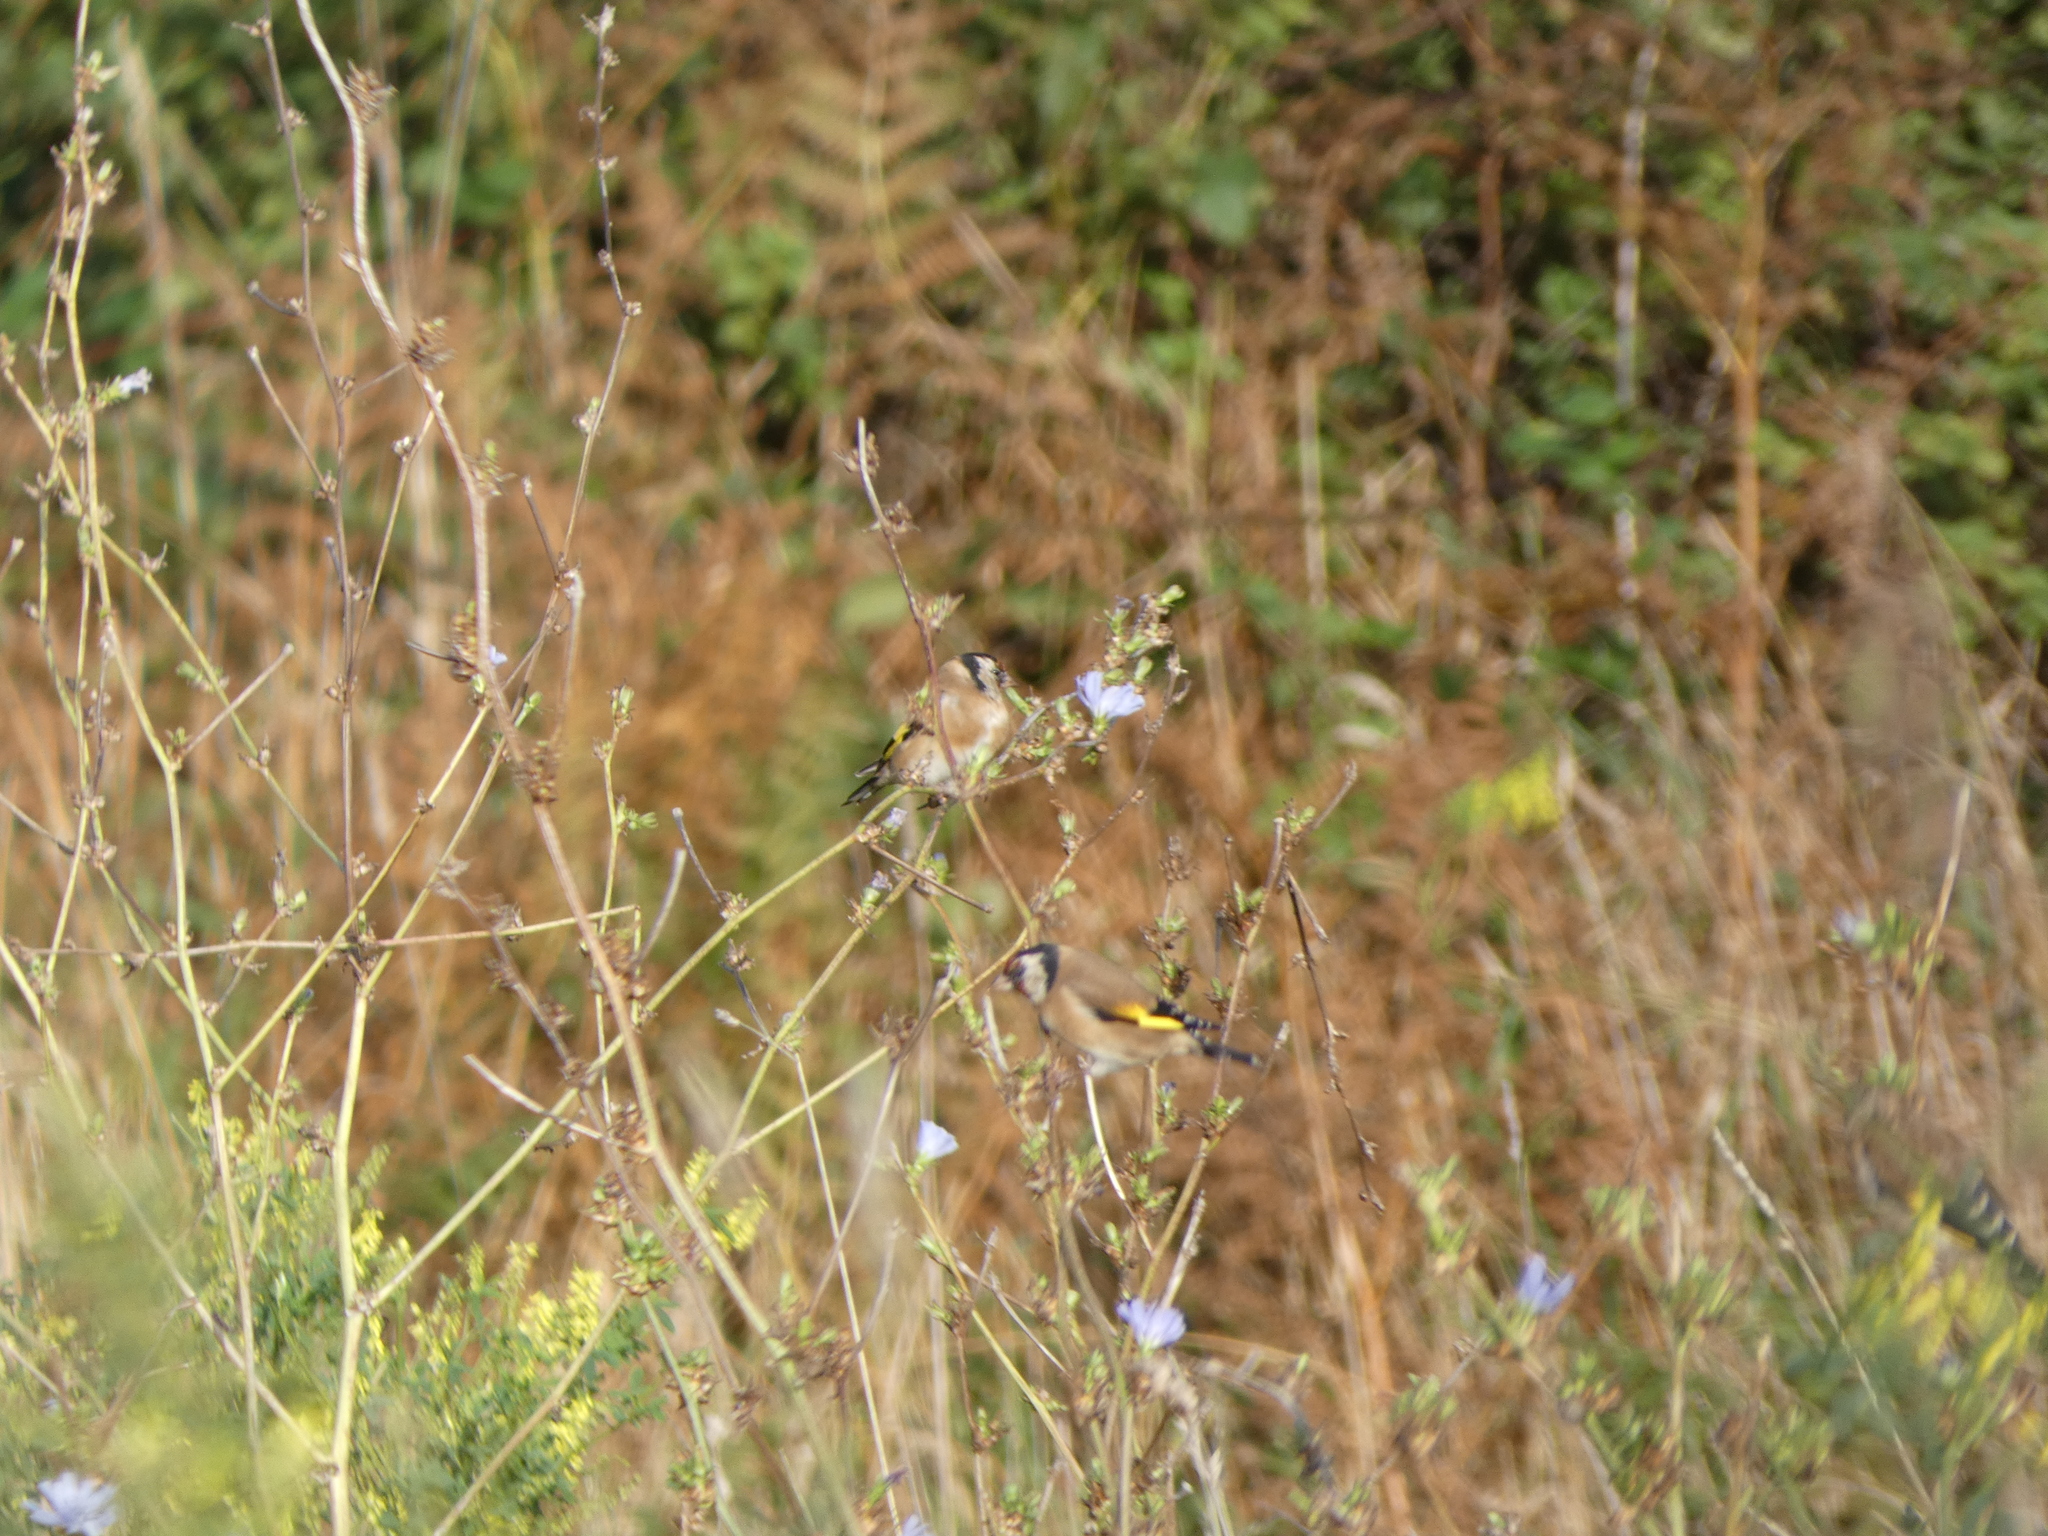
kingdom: Animalia
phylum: Chordata
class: Aves
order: Passeriformes
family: Fringillidae
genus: Carduelis
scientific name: Carduelis carduelis
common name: European goldfinch
